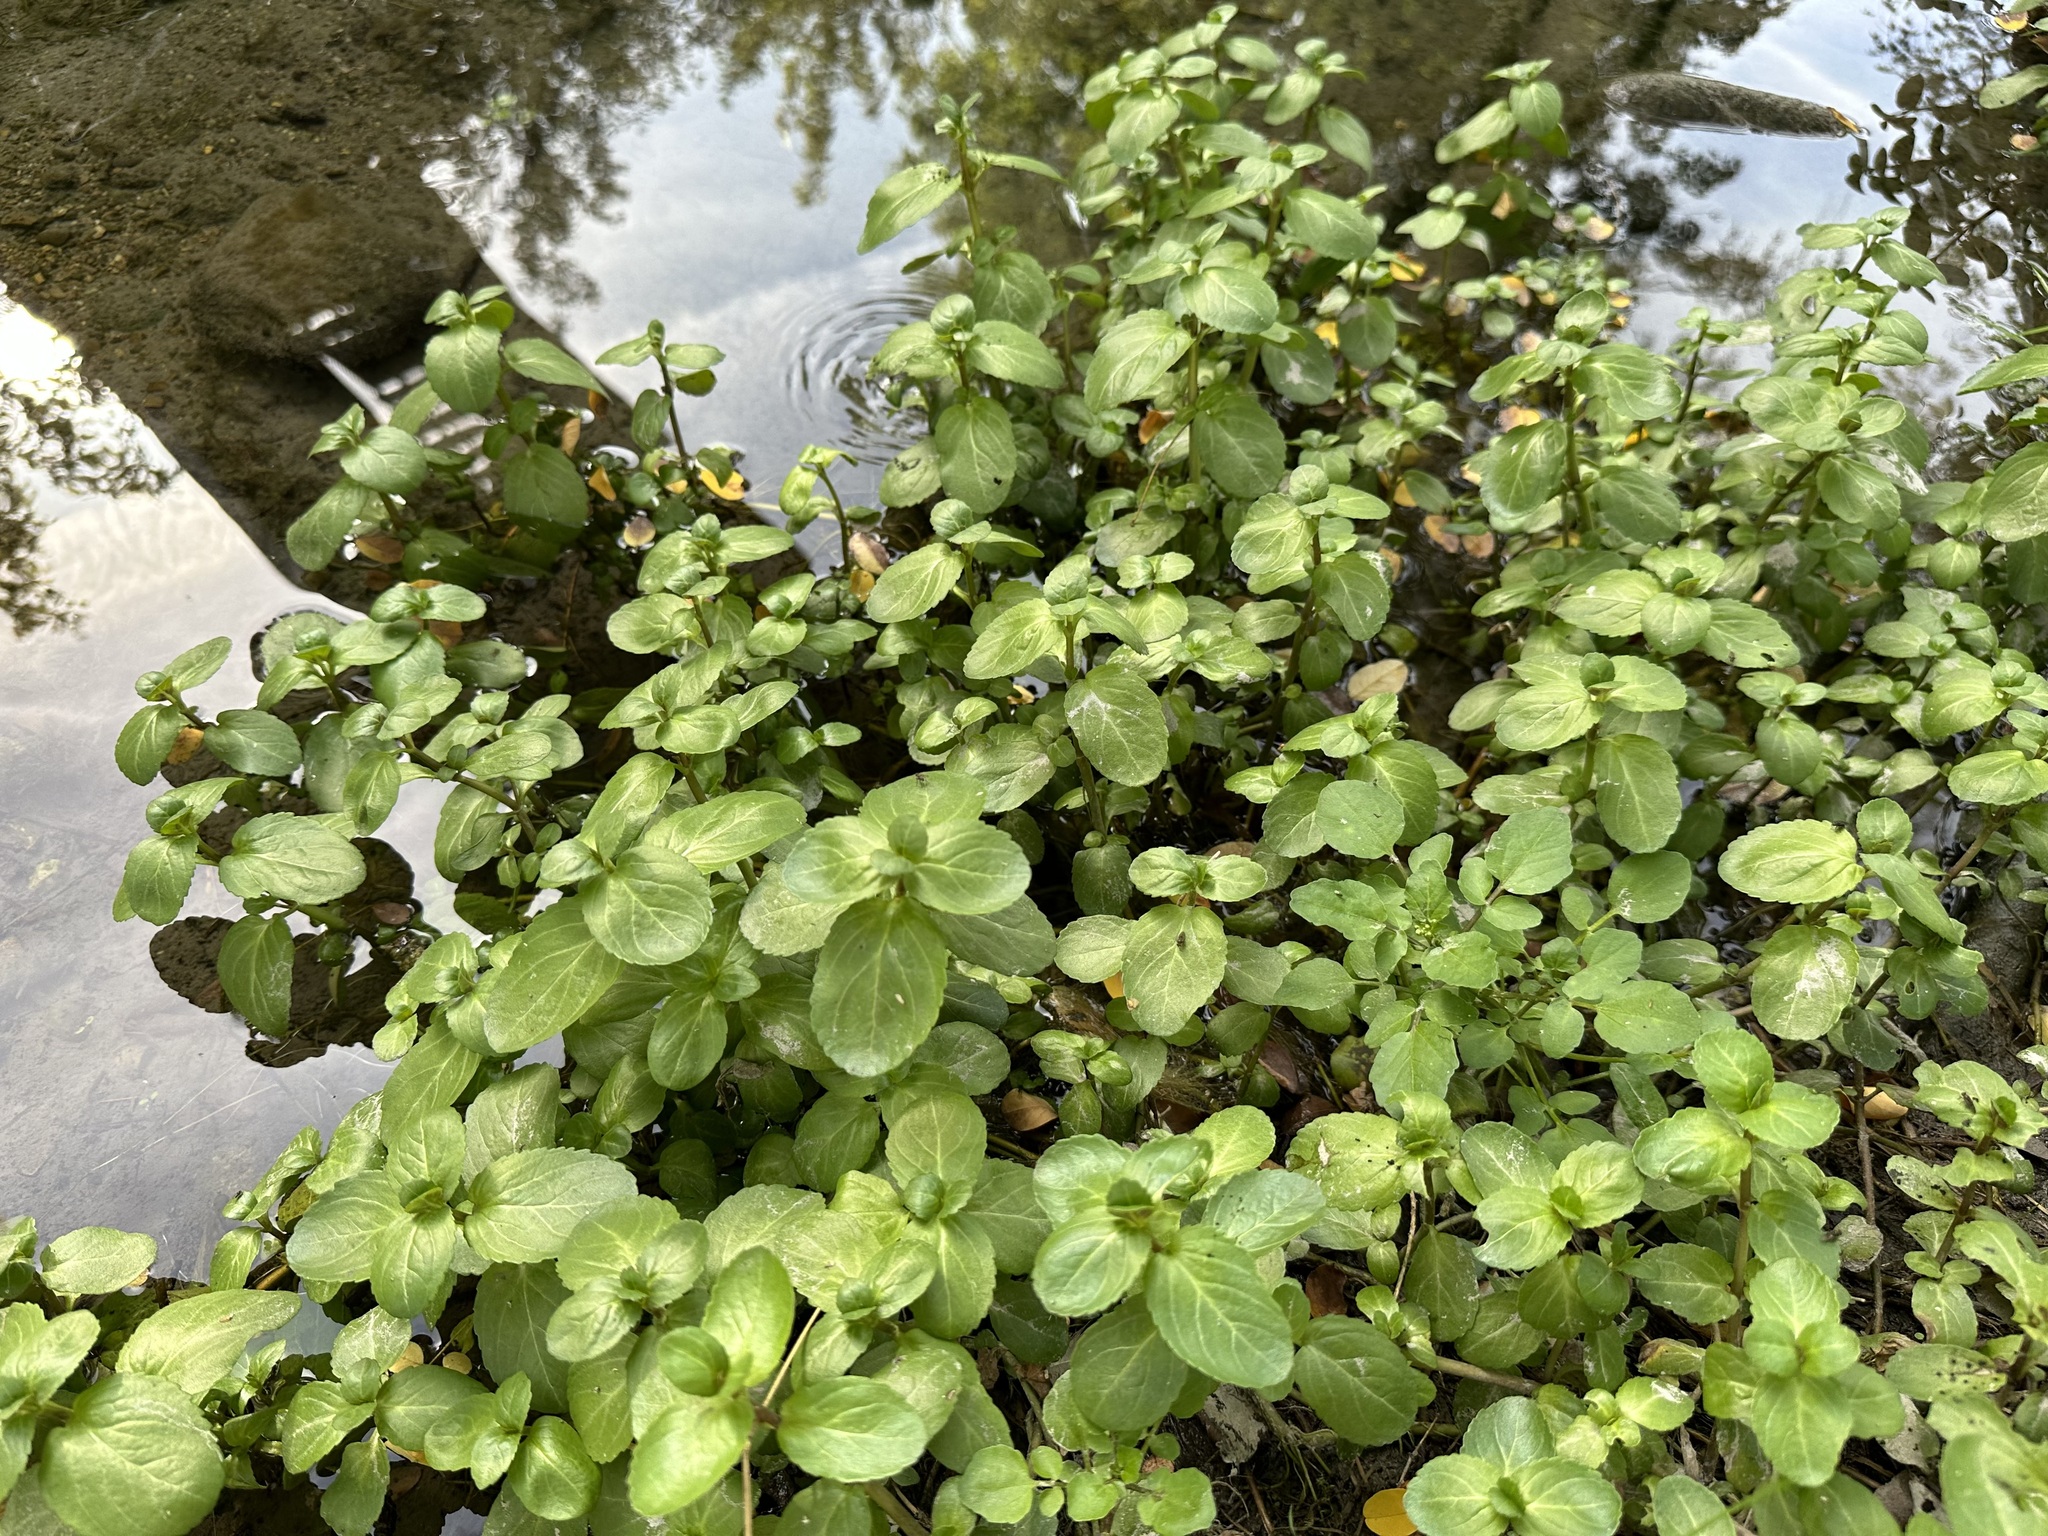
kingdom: Plantae
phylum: Tracheophyta
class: Magnoliopsida
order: Lamiales
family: Plantaginaceae
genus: Veronica
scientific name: Veronica beccabunga
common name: Brooklime
